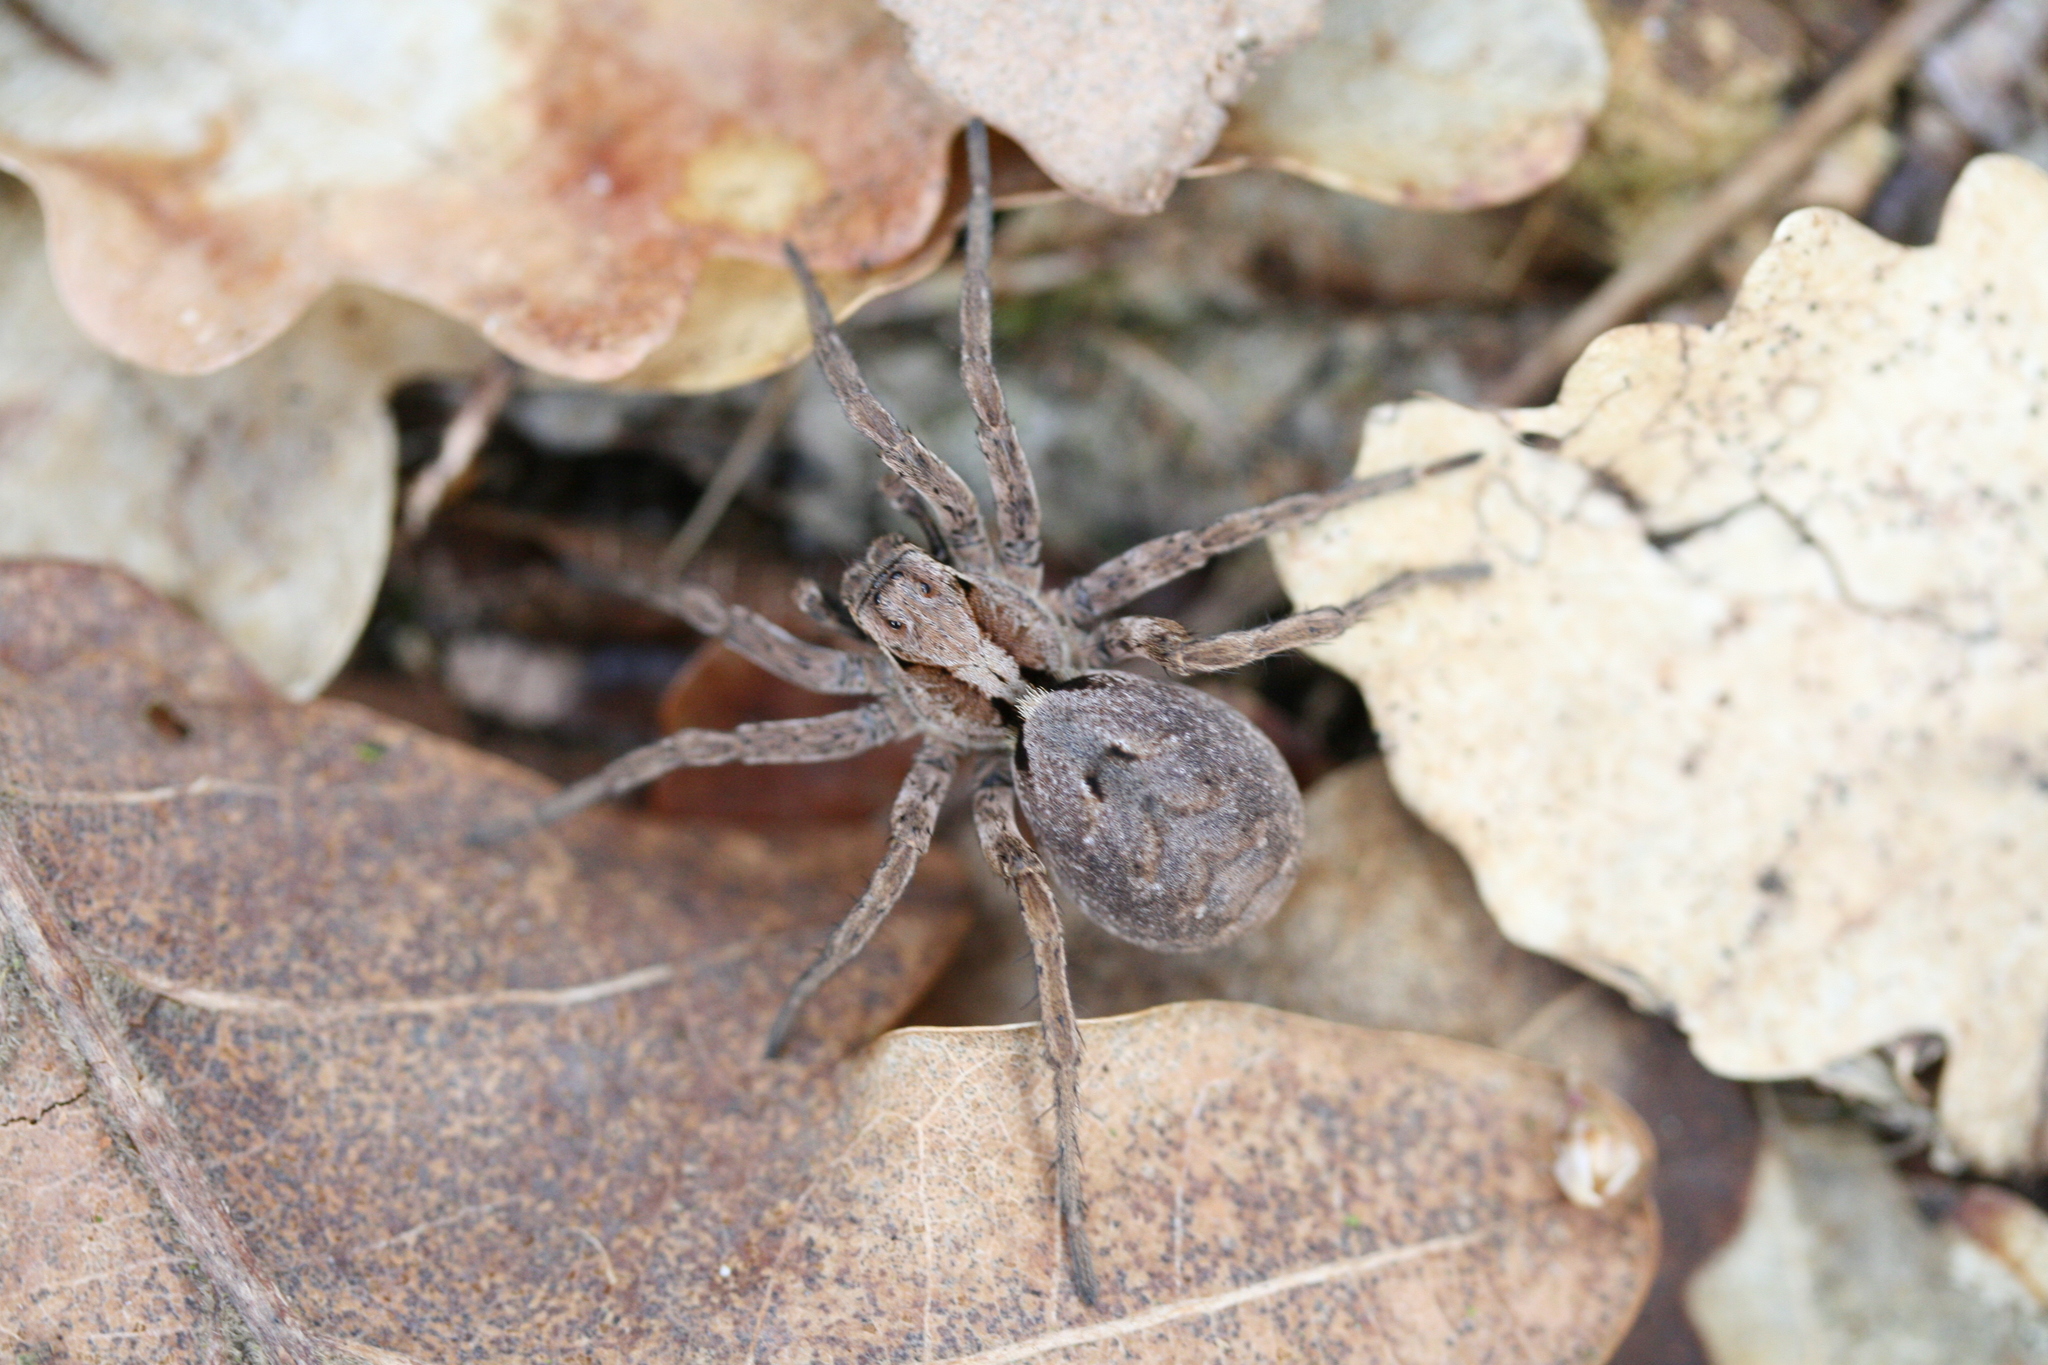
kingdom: Animalia
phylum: Arthropoda
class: Arachnida
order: Araneae
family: Lycosidae
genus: Alopecosa
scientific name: Alopecosa inquilina
